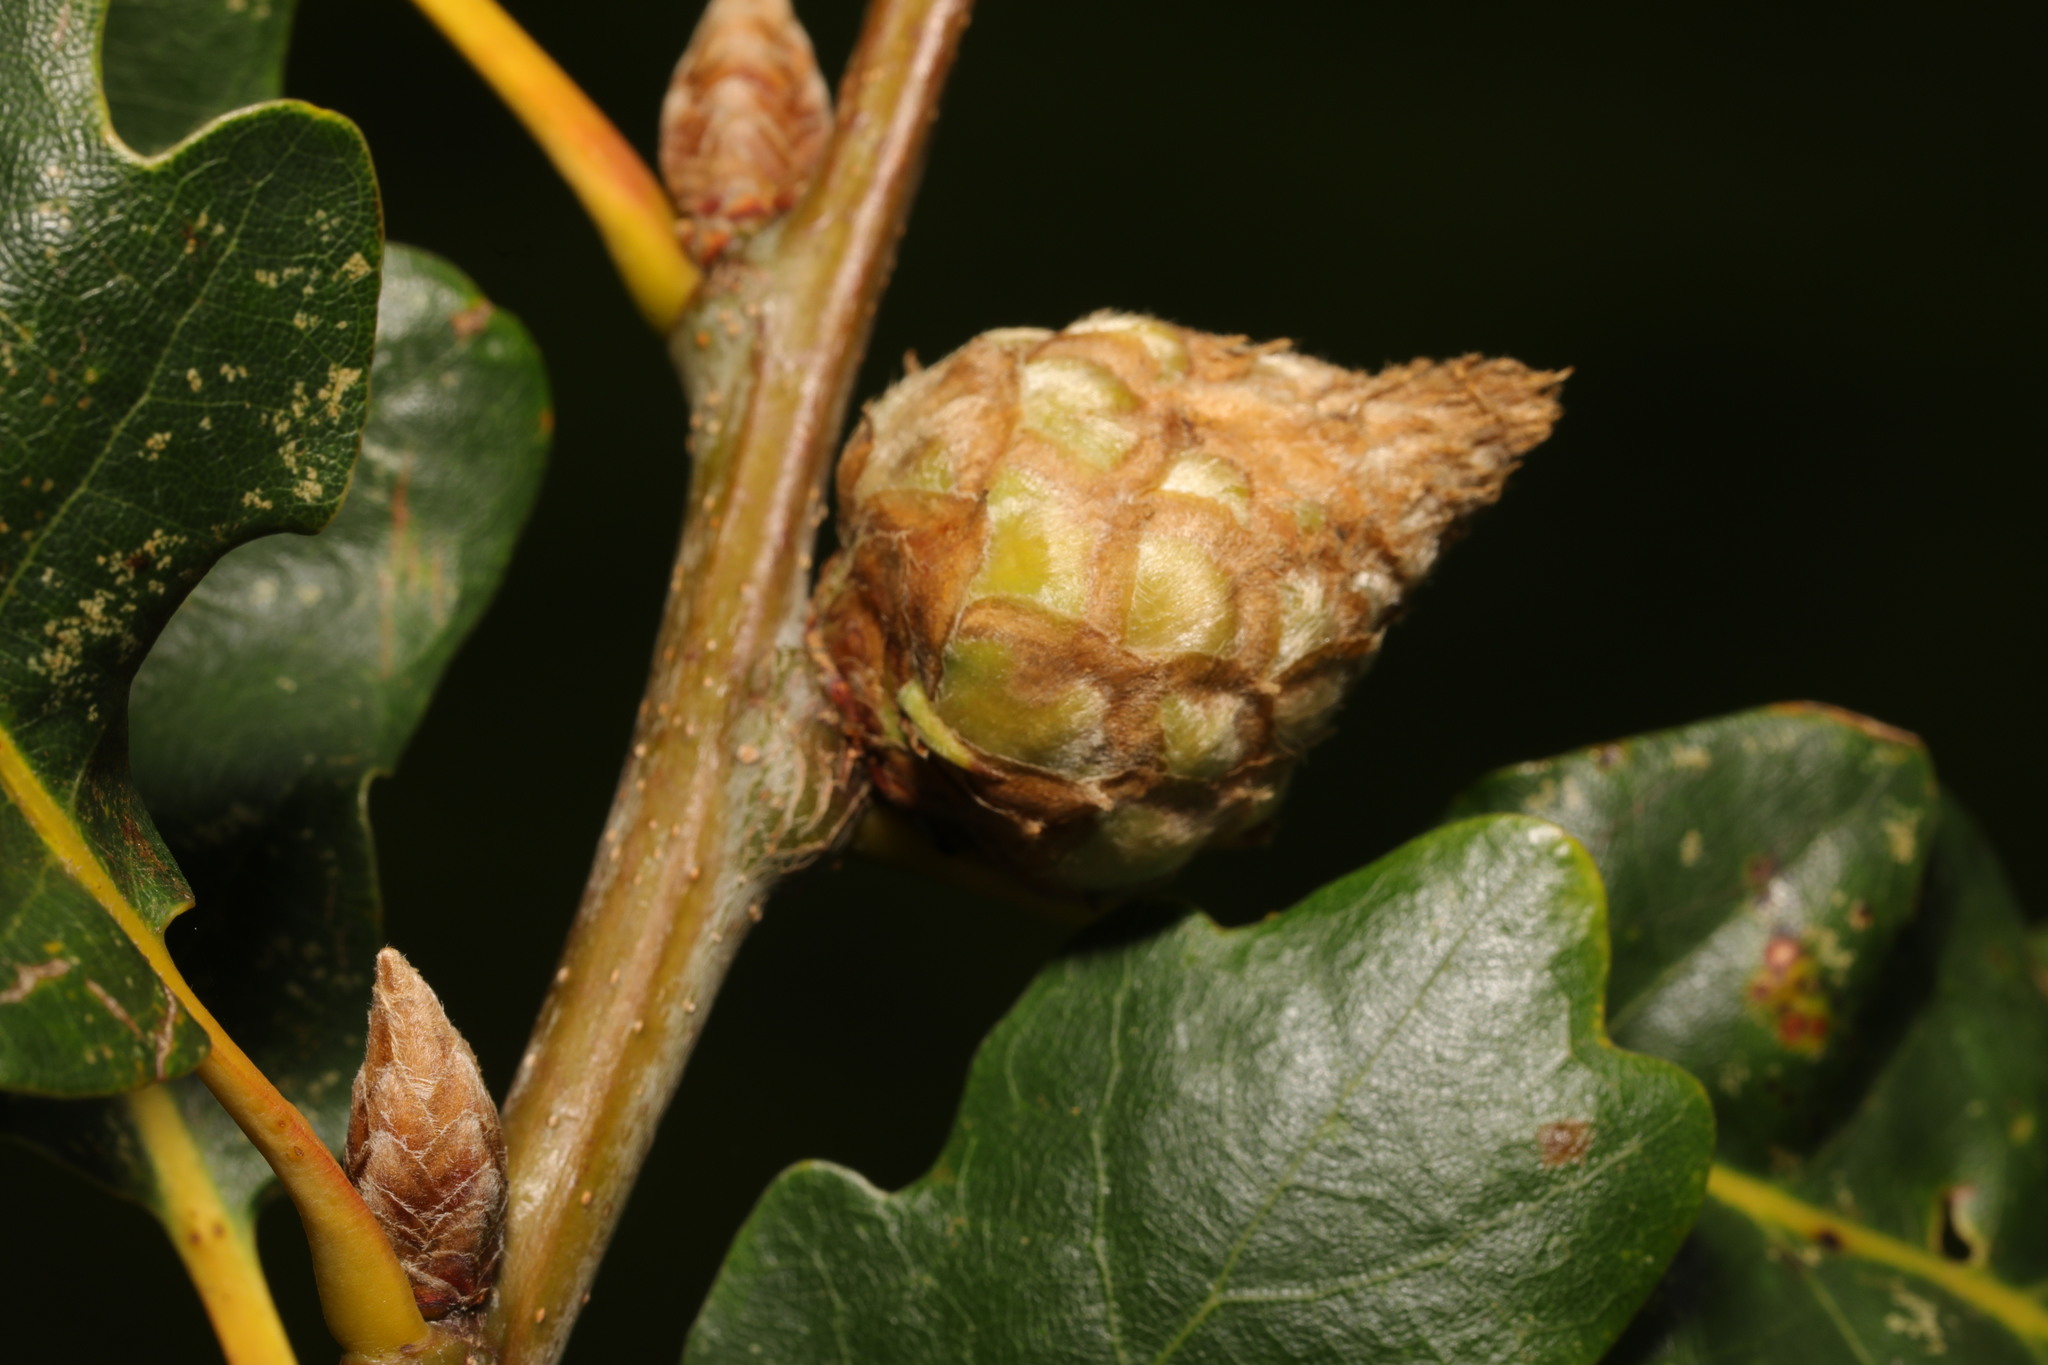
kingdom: Animalia
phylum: Arthropoda
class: Insecta
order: Hymenoptera
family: Cynipidae
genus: Andricus
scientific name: Andricus foecundatrix
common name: Artichoke gall
